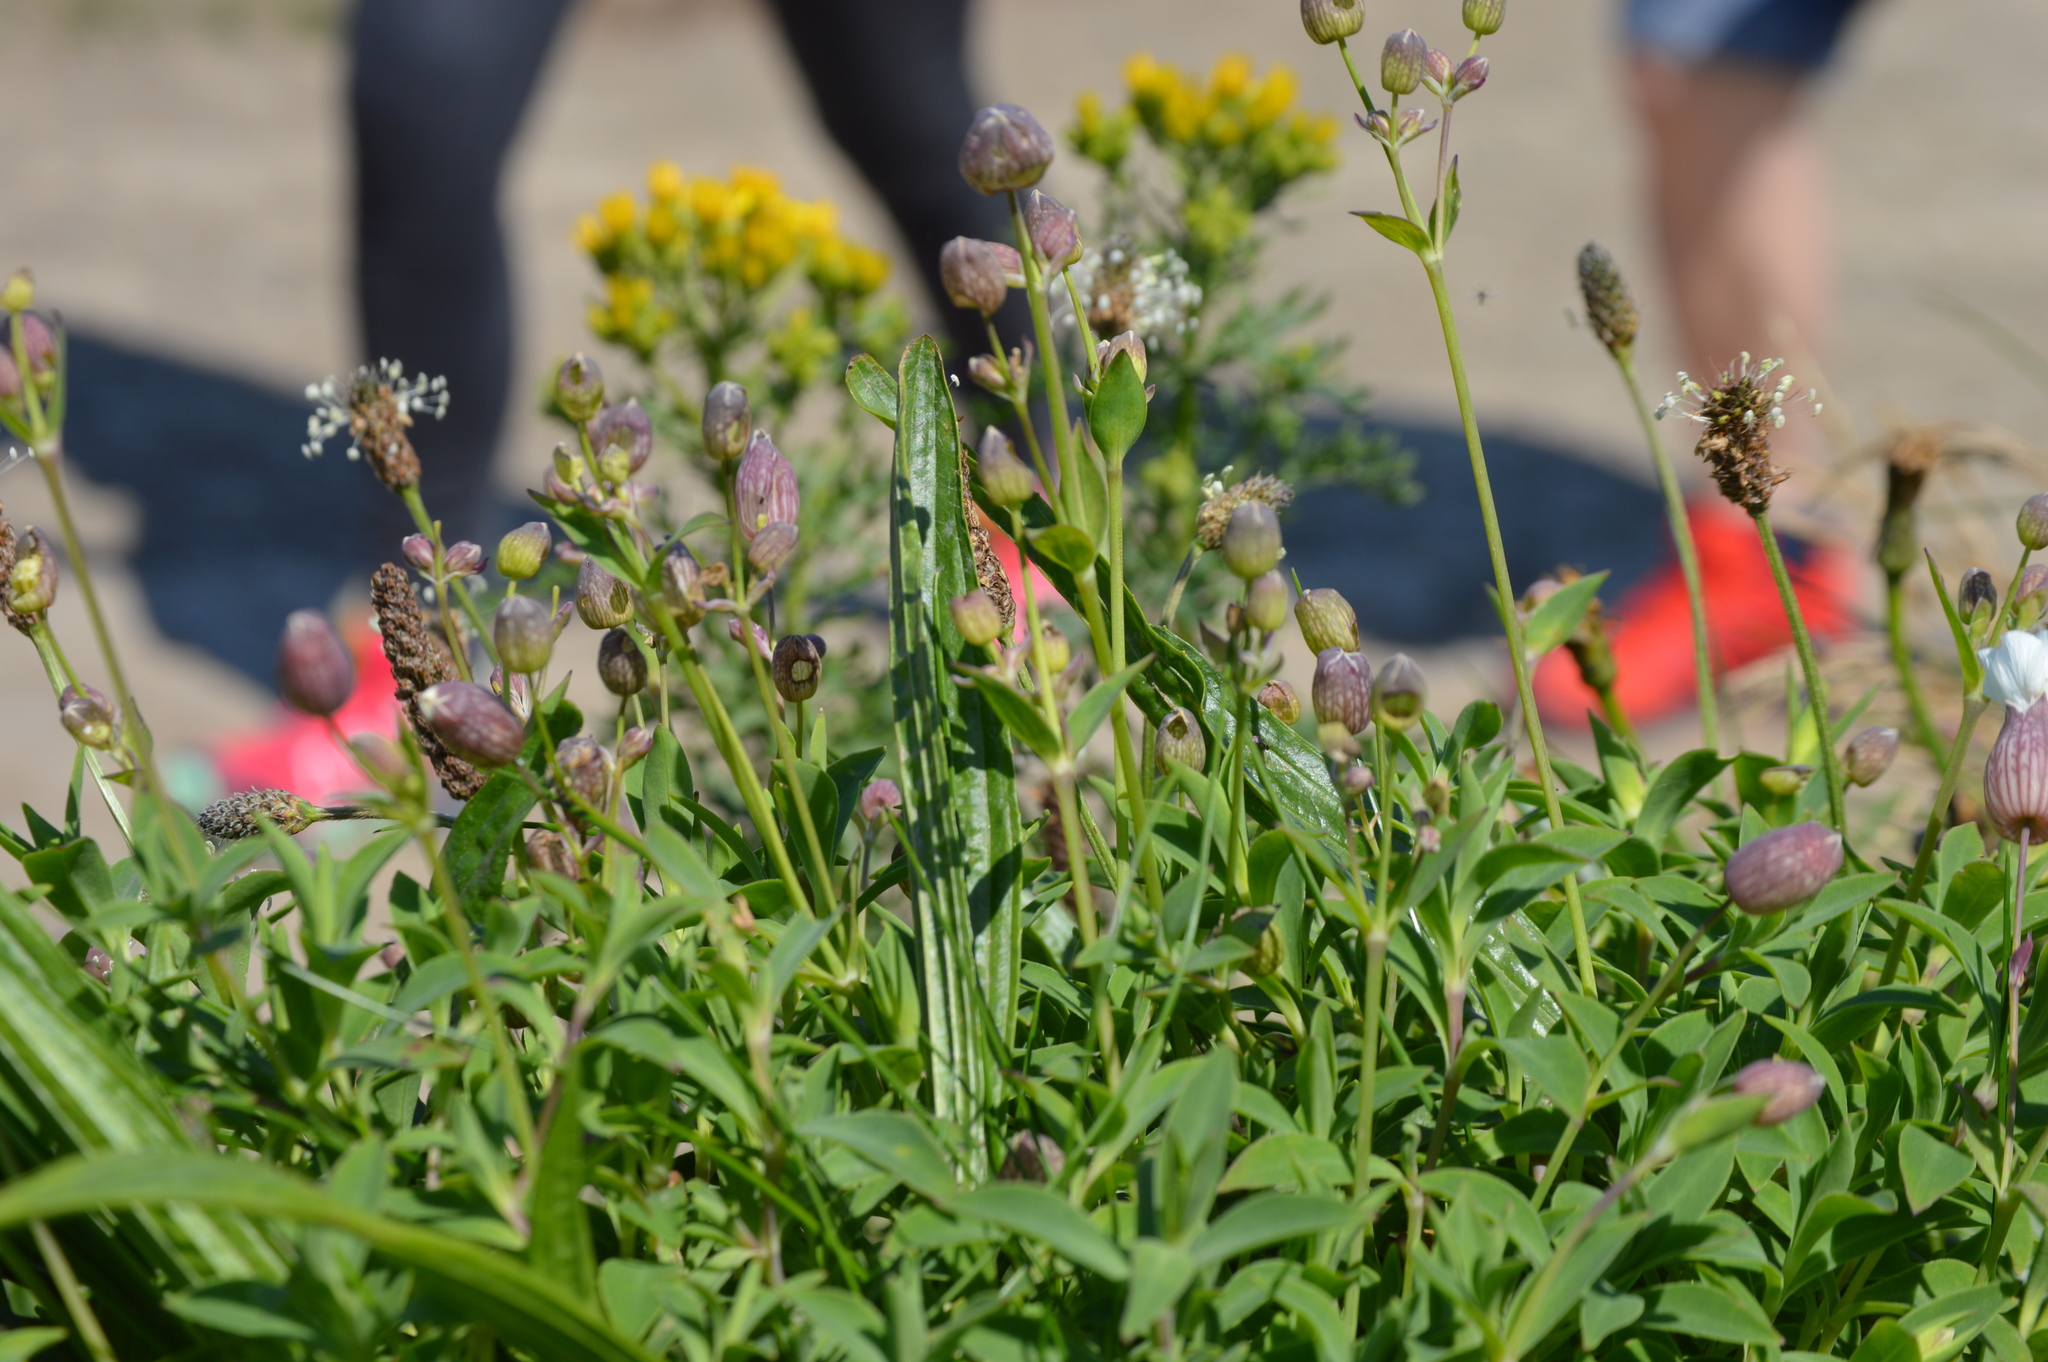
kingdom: Plantae
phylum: Tracheophyta
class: Magnoliopsida
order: Caryophyllales
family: Caryophyllaceae
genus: Silene
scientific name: Silene uniflora
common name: Sea campion
